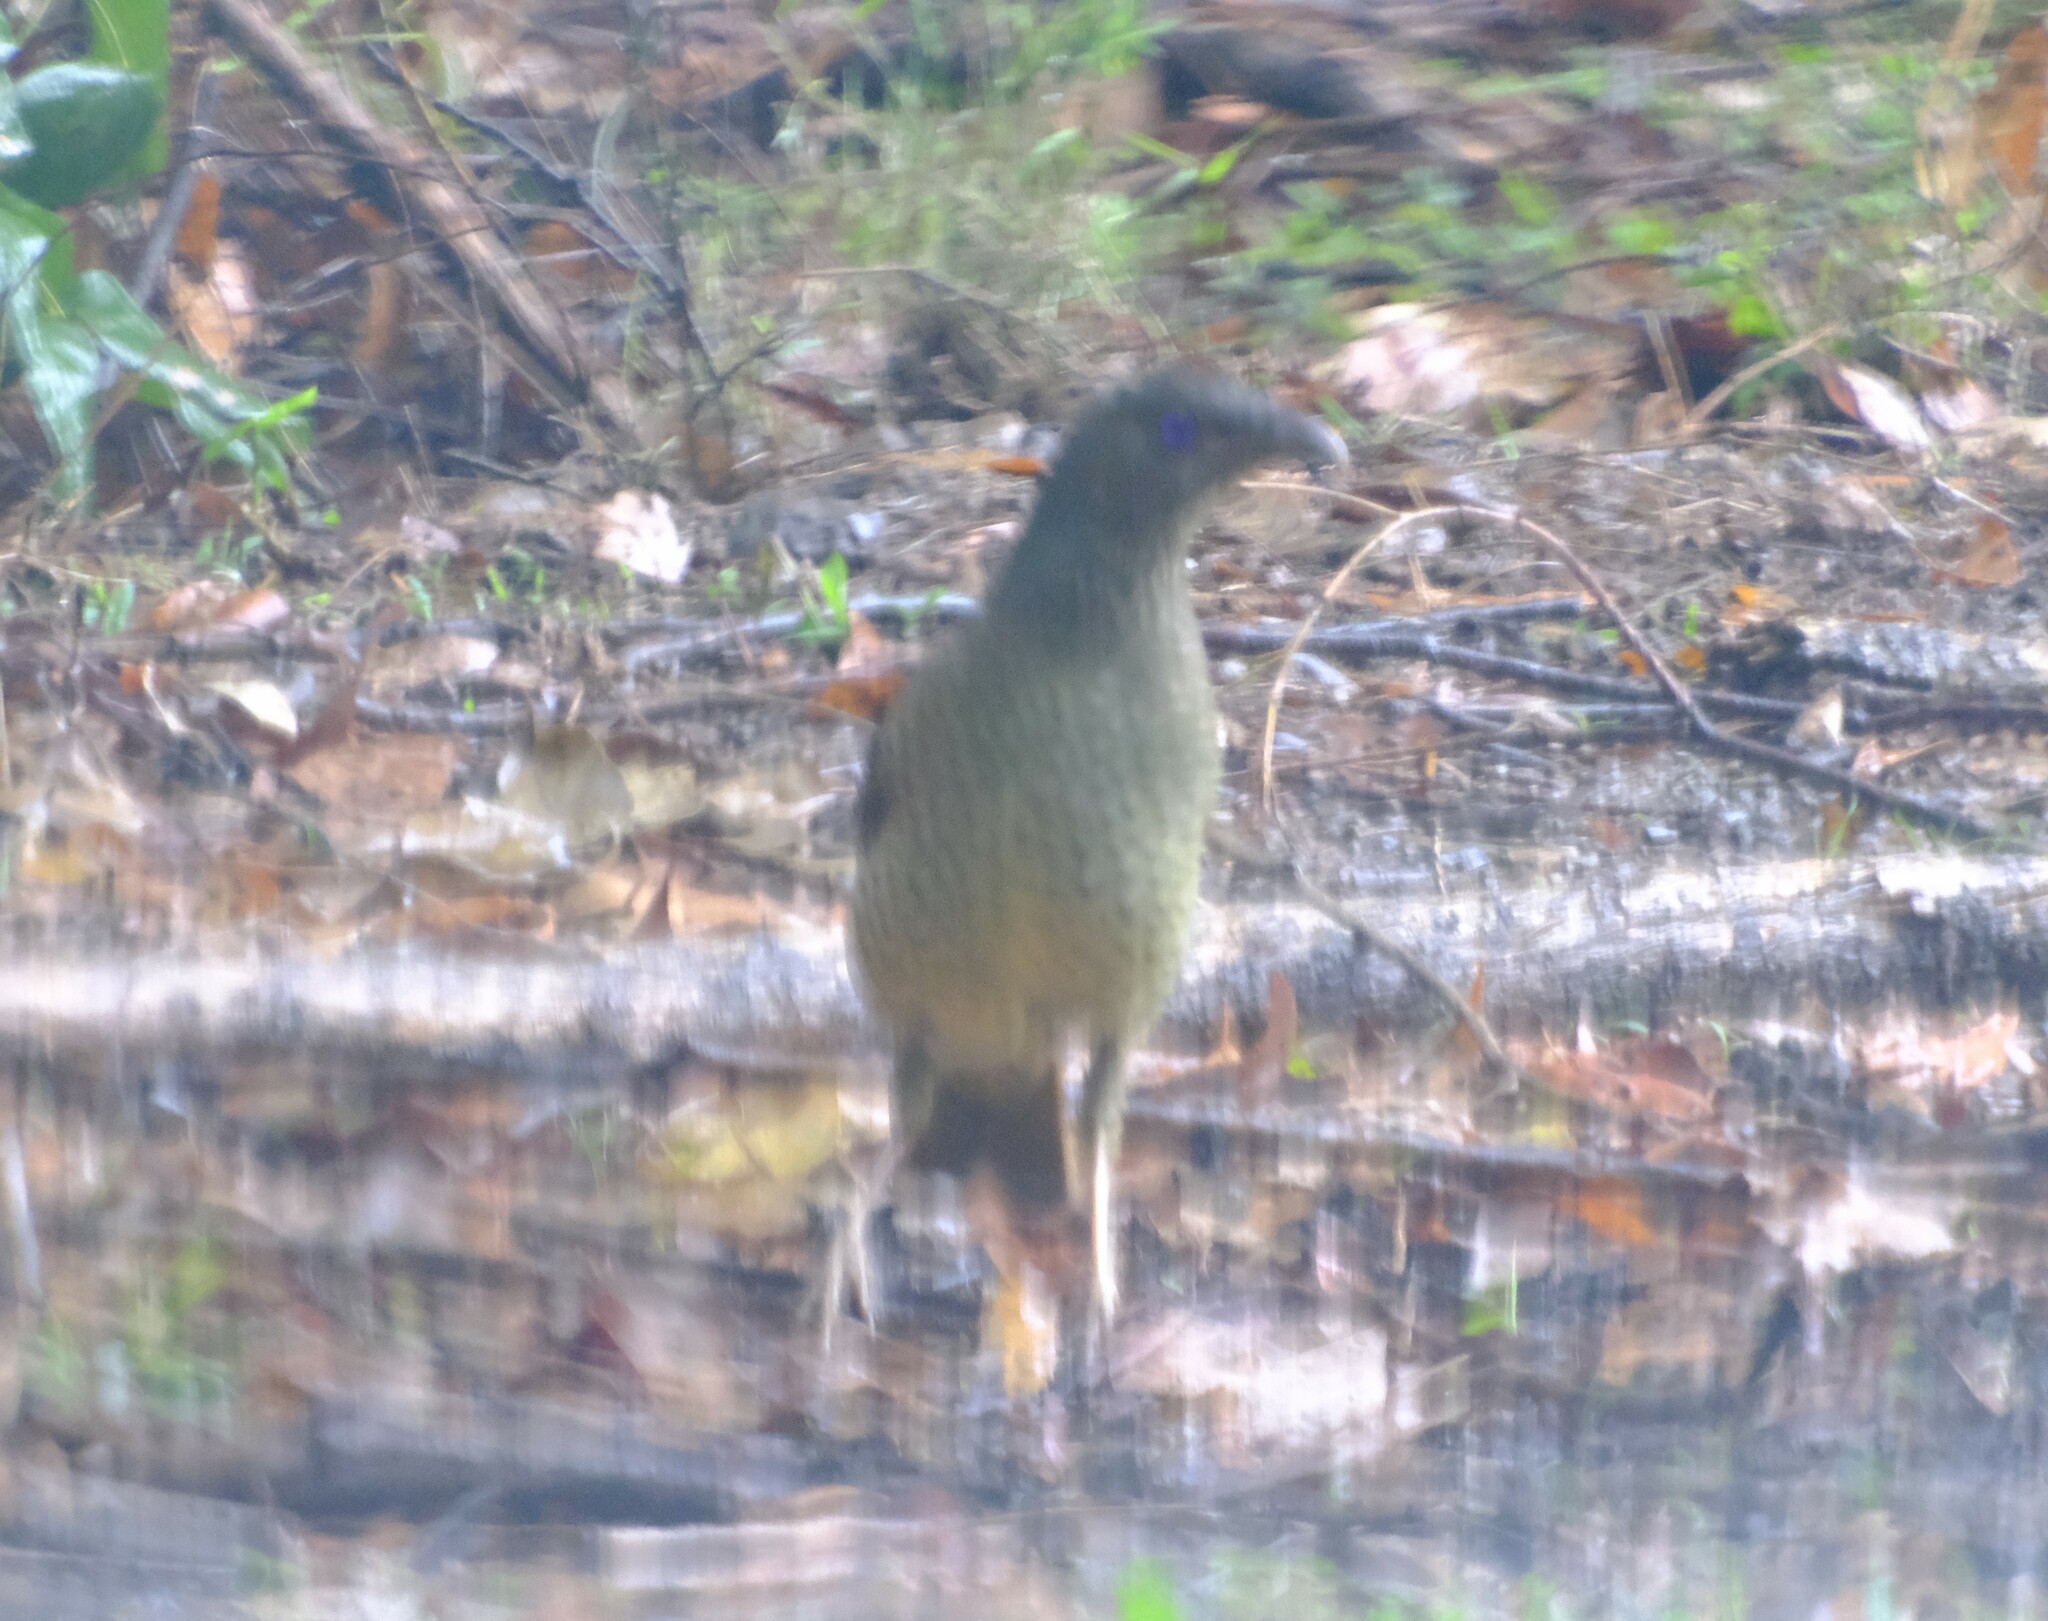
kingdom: Animalia
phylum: Chordata
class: Aves
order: Passeriformes
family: Ptilonorhynchidae
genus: Ptilonorhynchus
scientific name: Ptilonorhynchus violaceus
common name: Satin bowerbird
